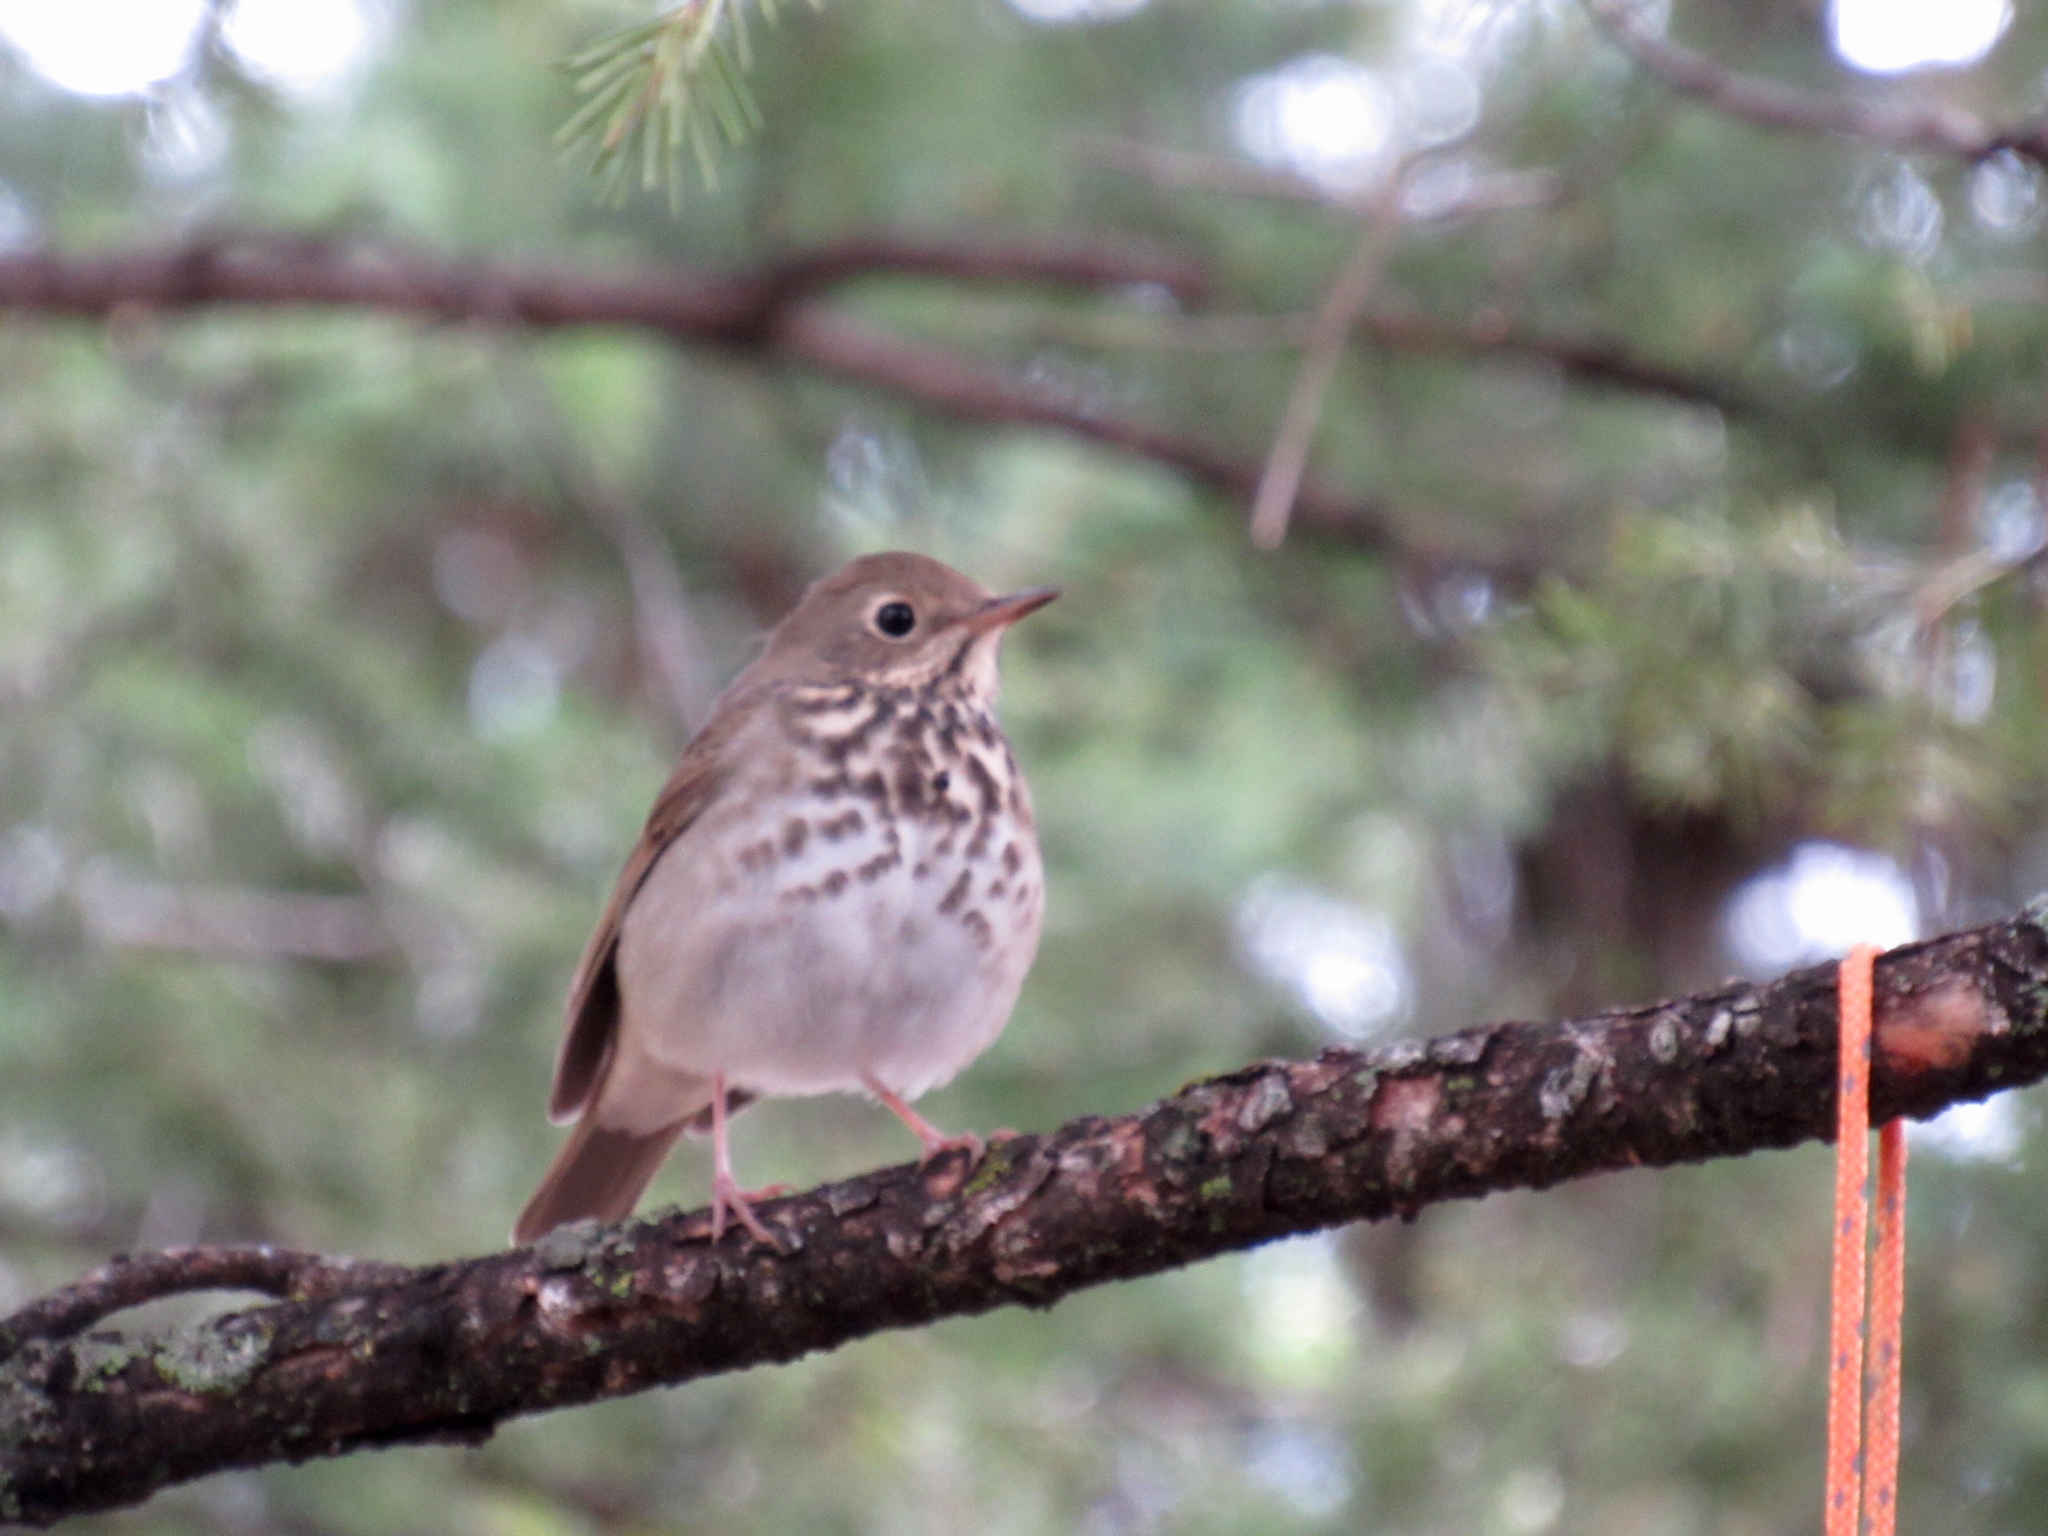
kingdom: Animalia
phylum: Chordata
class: Aves
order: Passeriformes
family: Turdidae
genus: Catharus
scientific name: Catharus guttatus
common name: Hermit thrush
